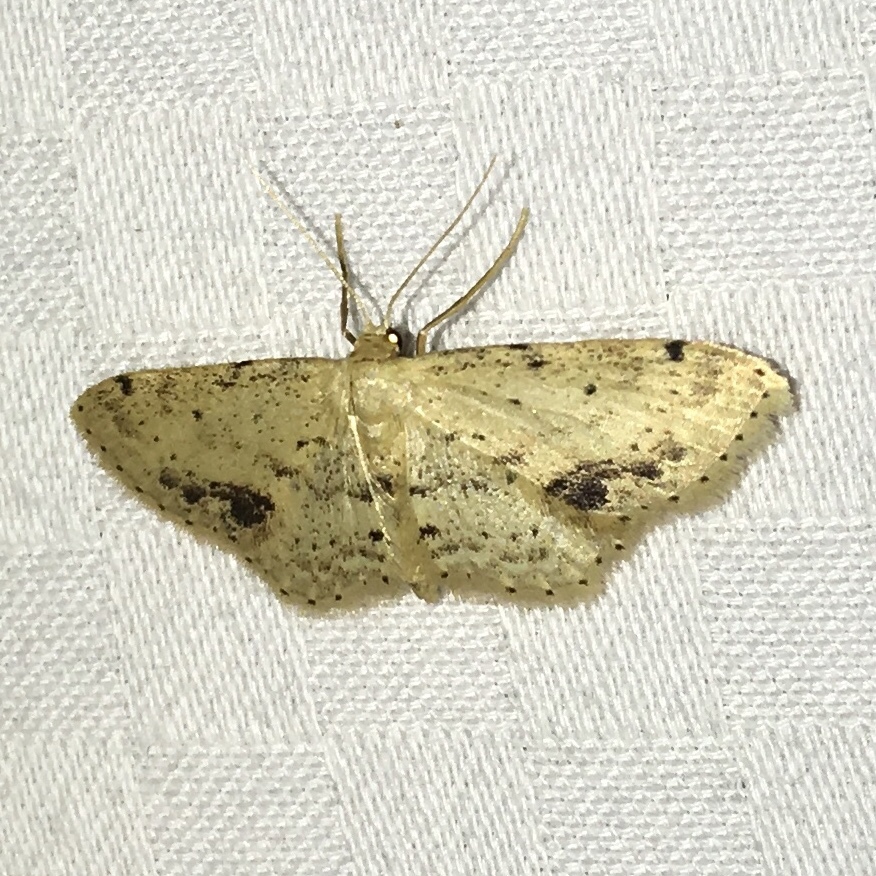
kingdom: Animalia
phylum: Arthropoda
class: Insecta
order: Lepidoptera
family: Geometridae
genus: Idaea
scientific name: Idaea dimidiata
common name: Single-dotted wave
